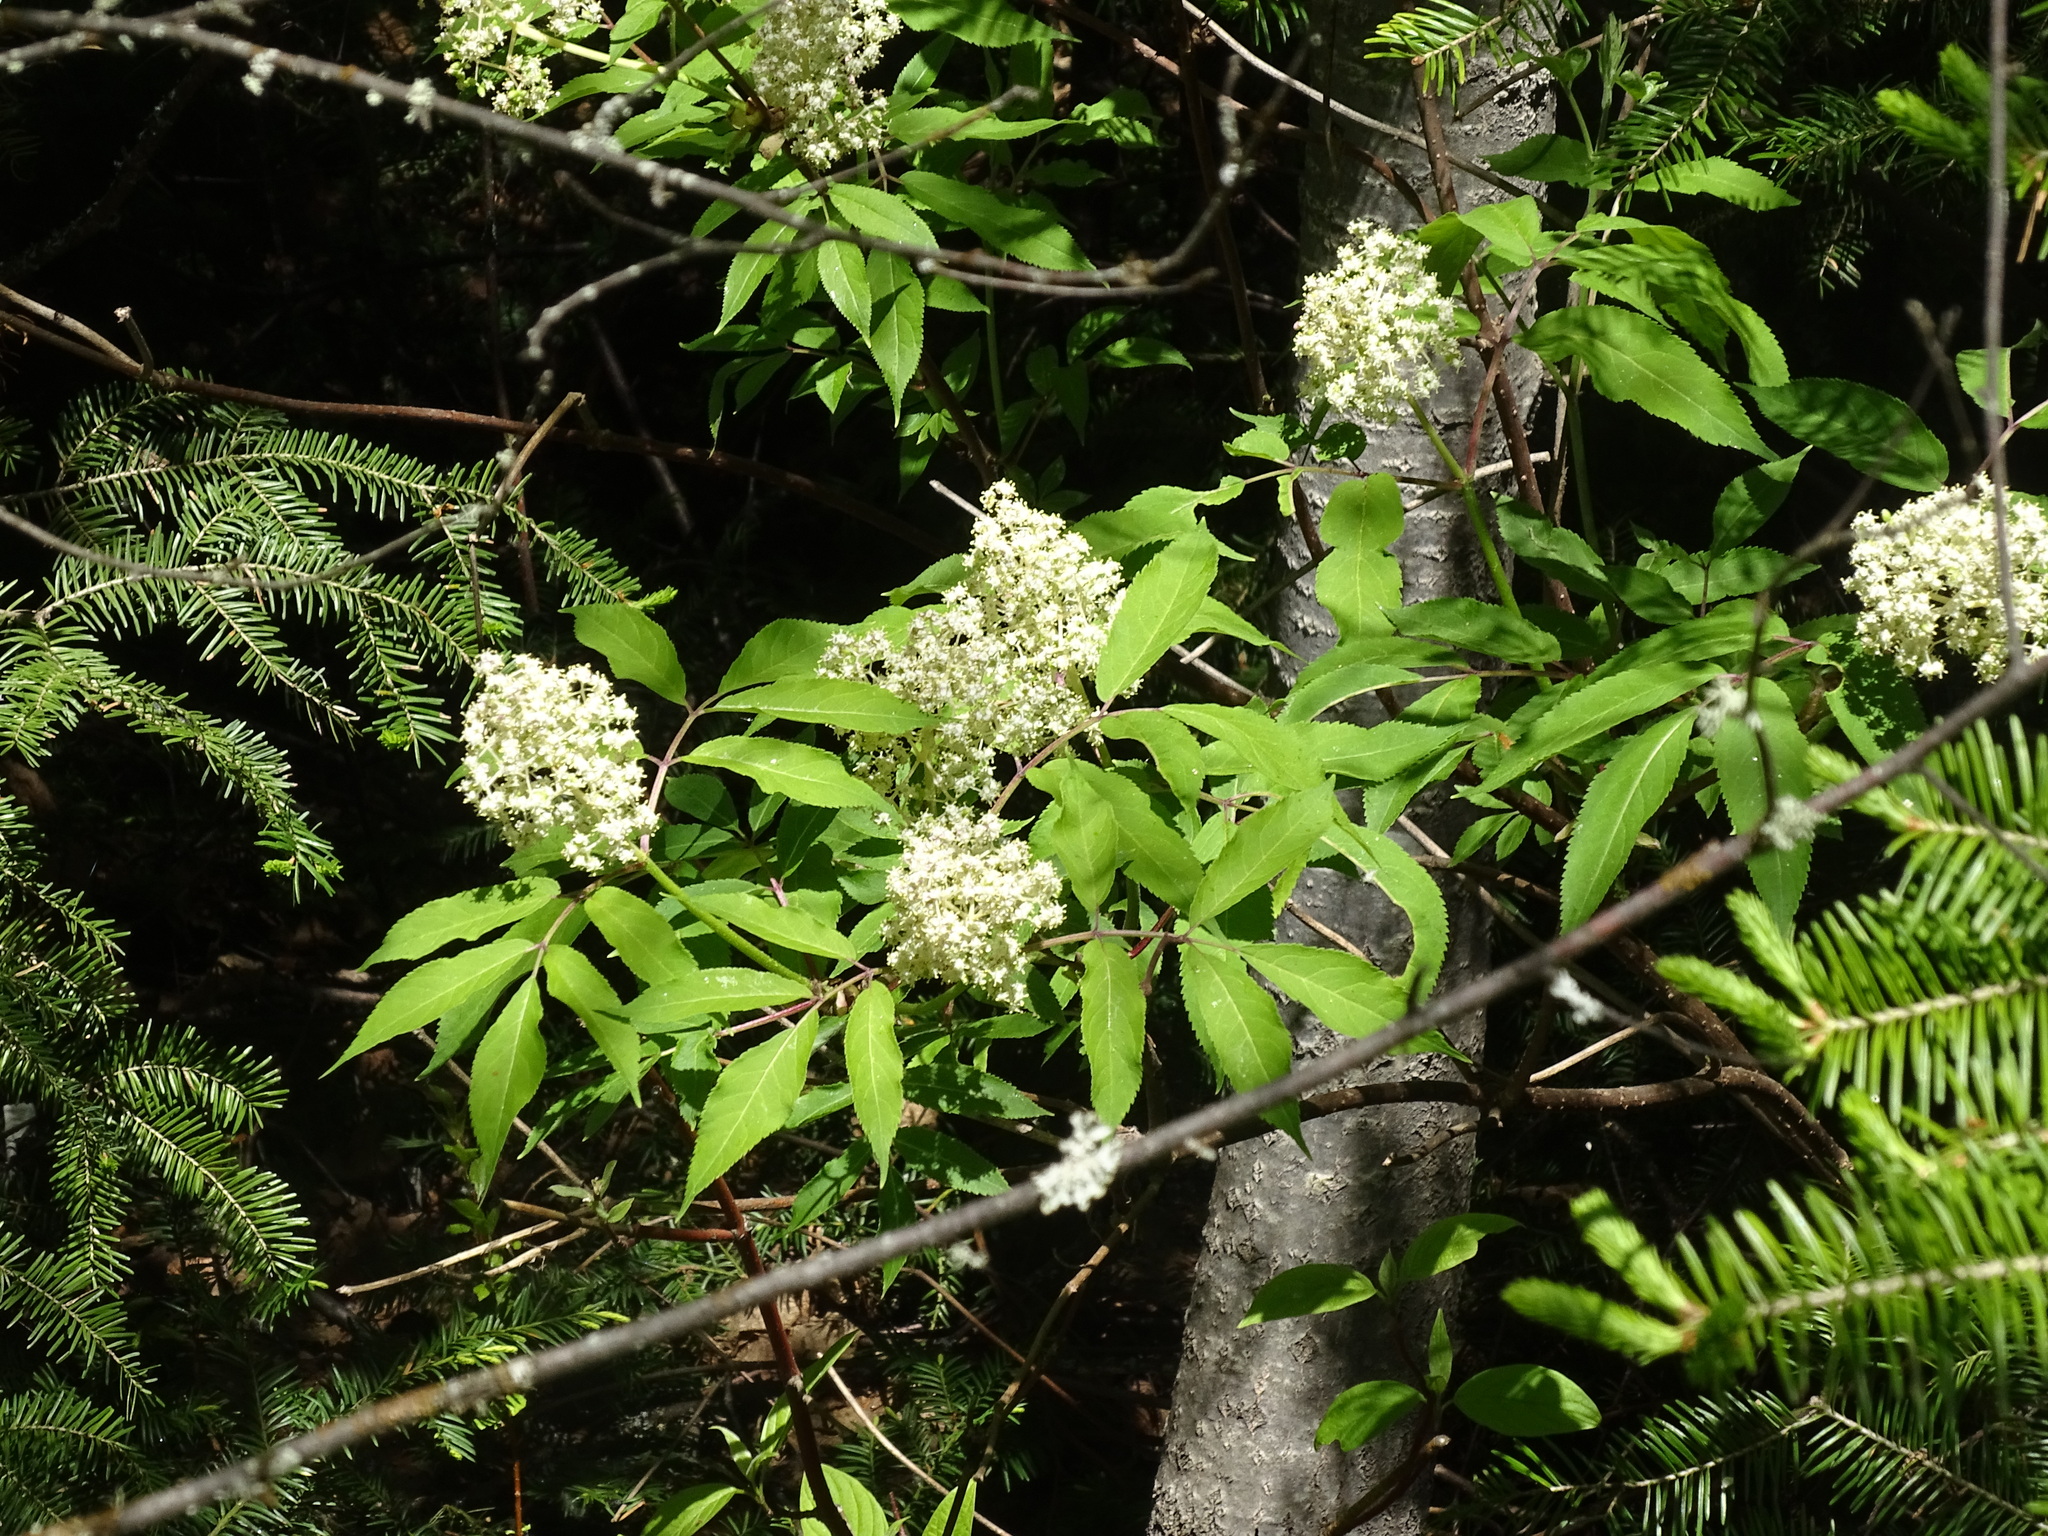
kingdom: Plantae
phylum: Tracheophyta
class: Magnoliopsida
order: Dipsacales
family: Viburnaceae
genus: Sambucus
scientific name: Sambucus racemosa
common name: Red-berried elder
